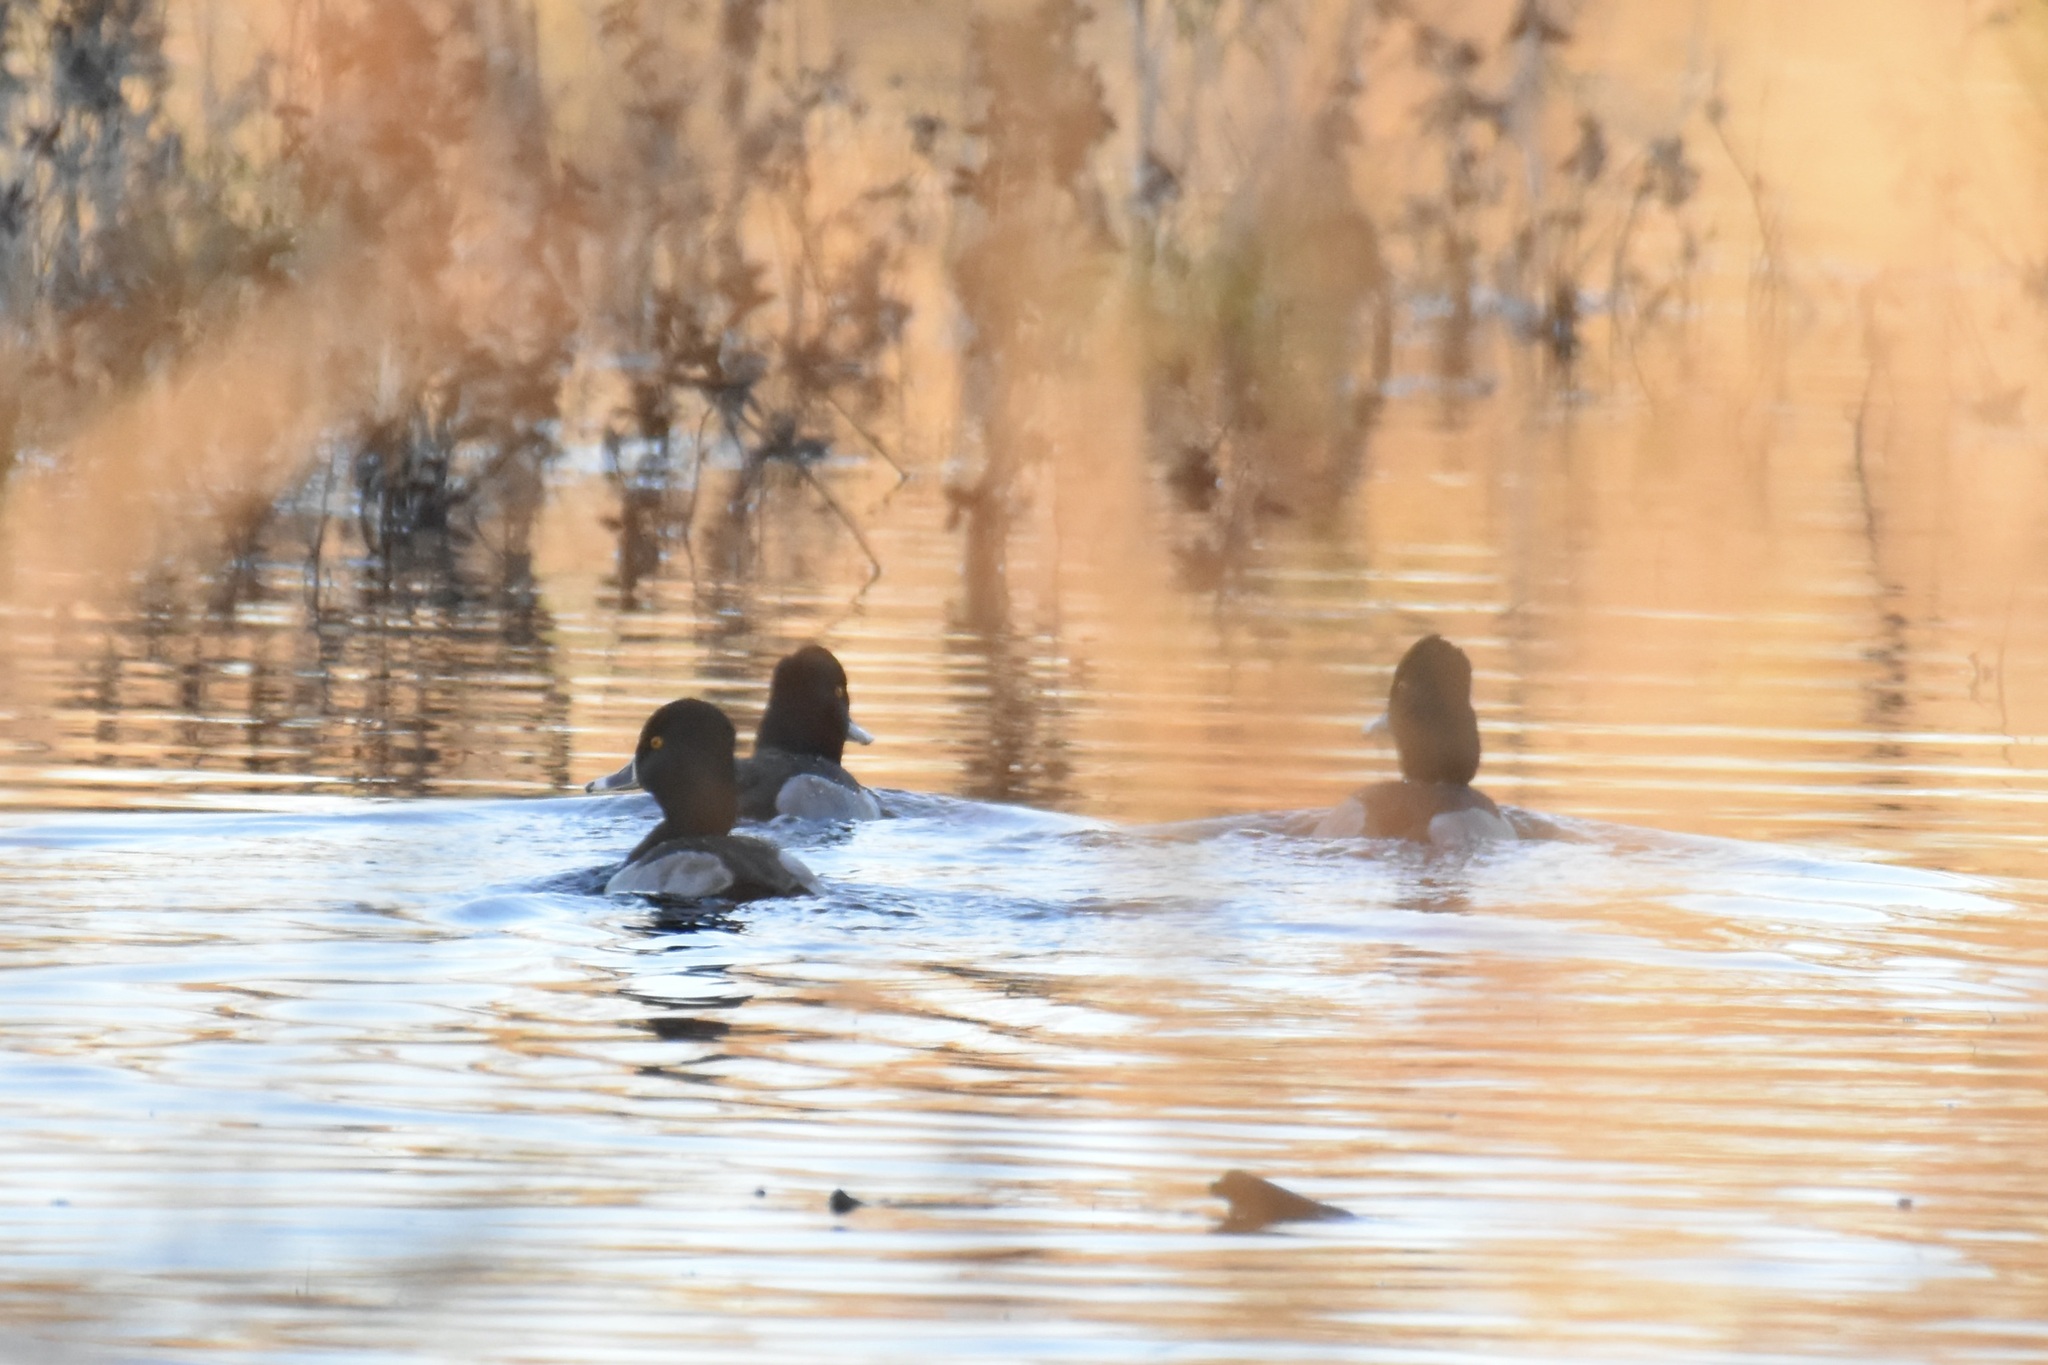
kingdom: Animalia
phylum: Chordata
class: Aves
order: Anseriformes
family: Anatidae
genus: Aythya
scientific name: Aythya collaris
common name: Ring-necked duck
